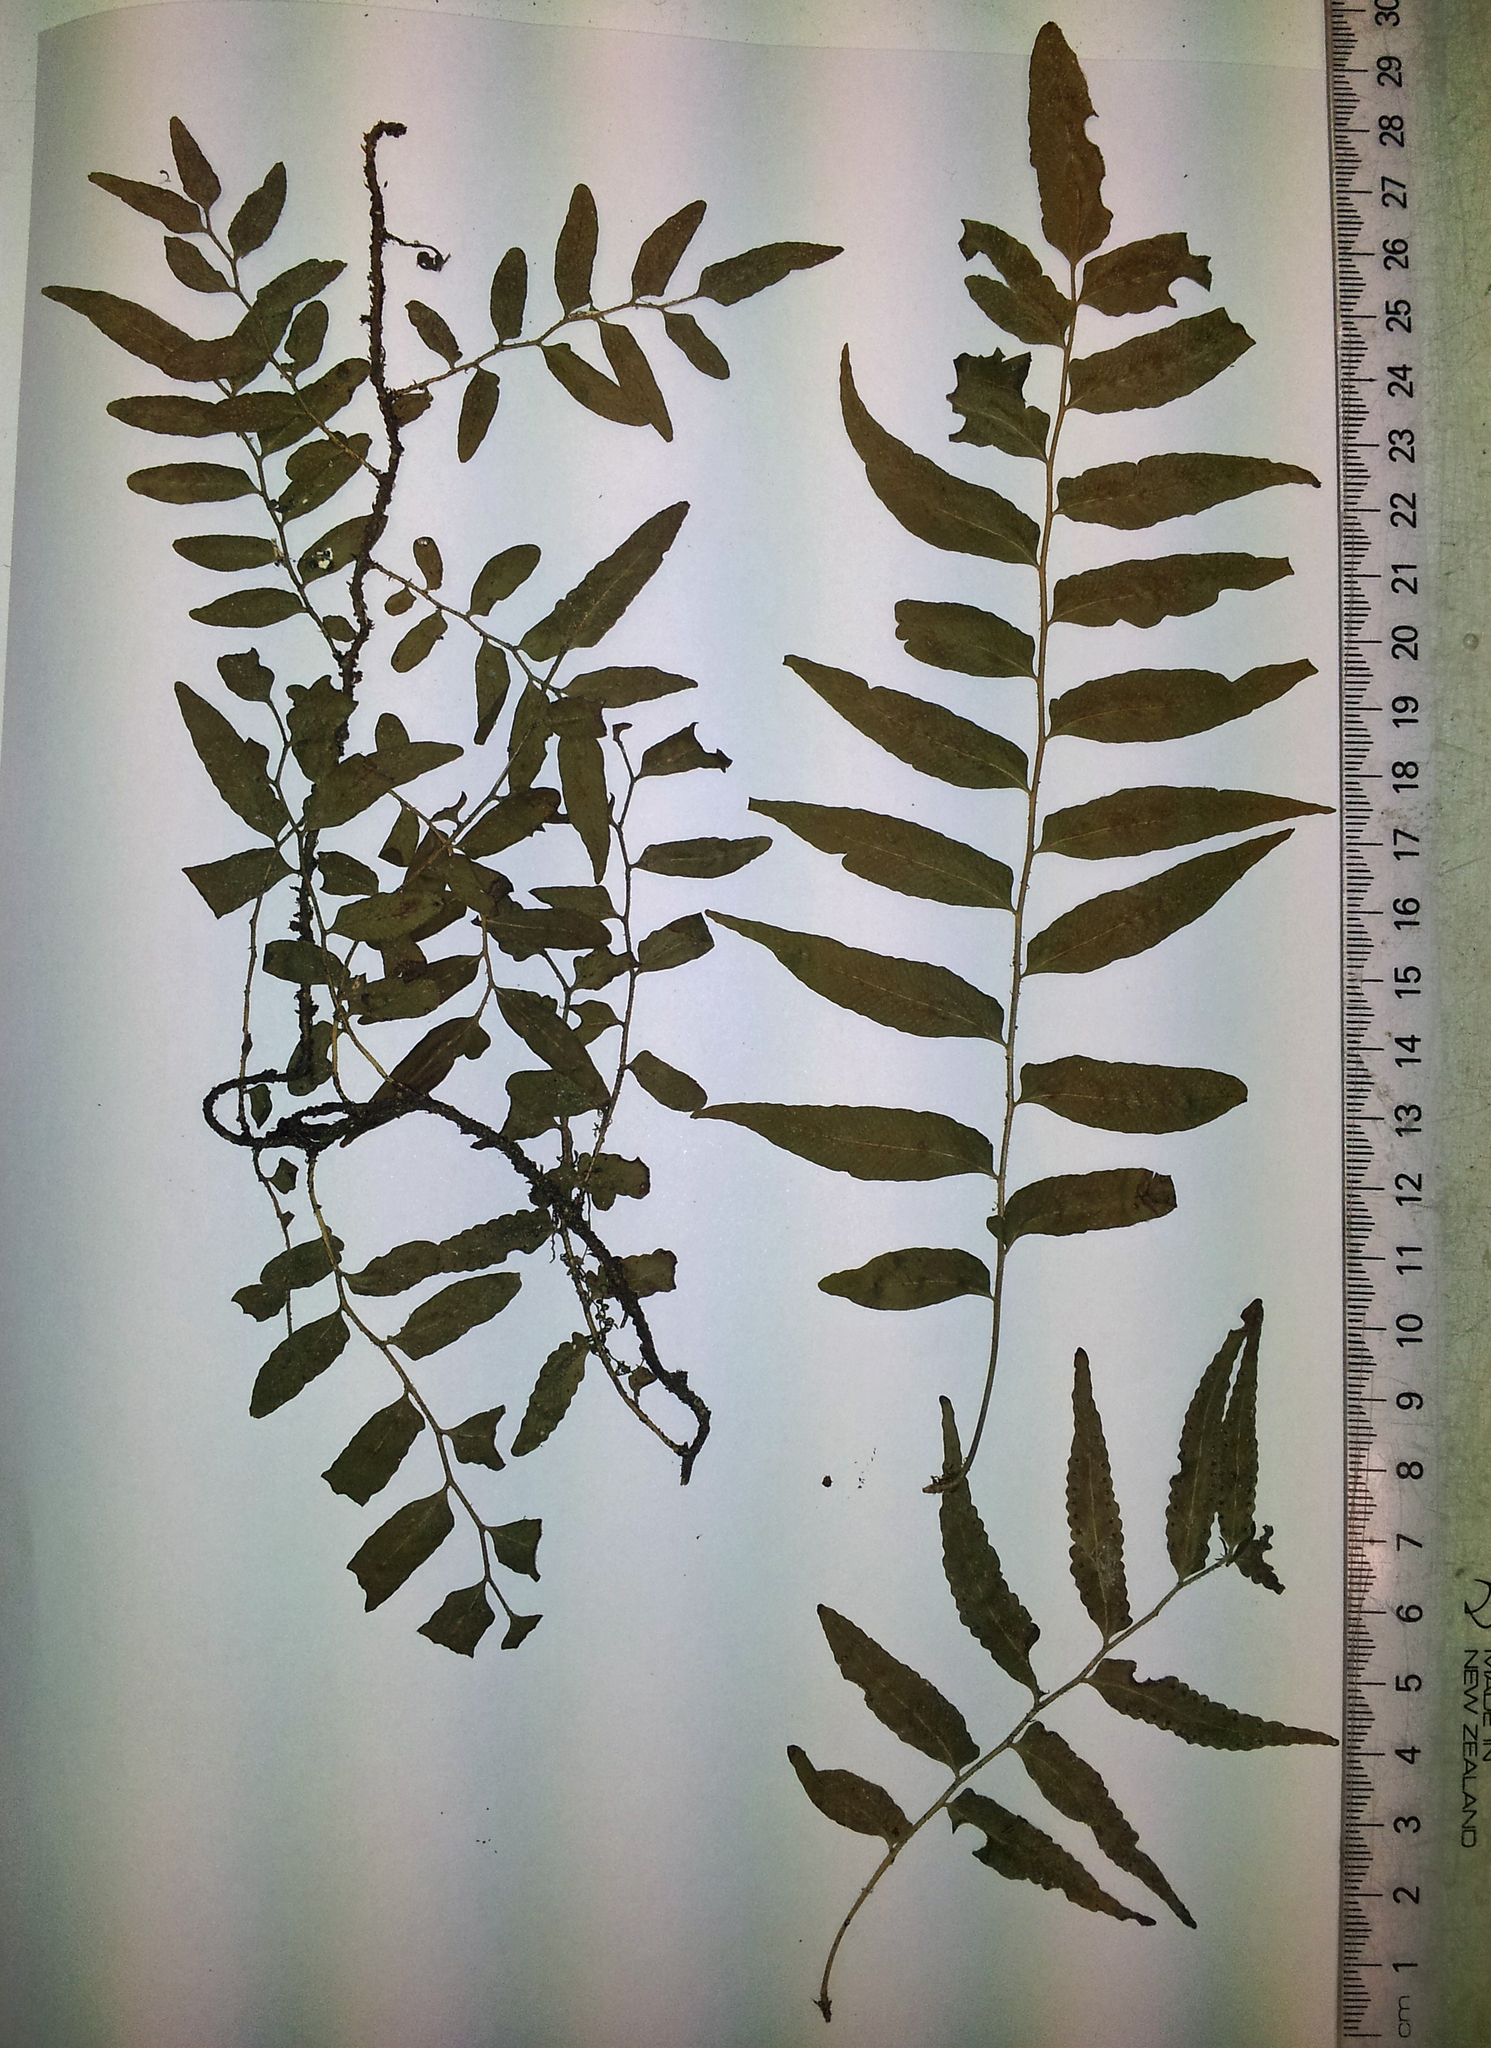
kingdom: Plantae
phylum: Tracheophyta
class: Polypodiopsida
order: Polypodiales
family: Tectariaceae
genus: Arthropteris
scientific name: Arthropteris tenella
